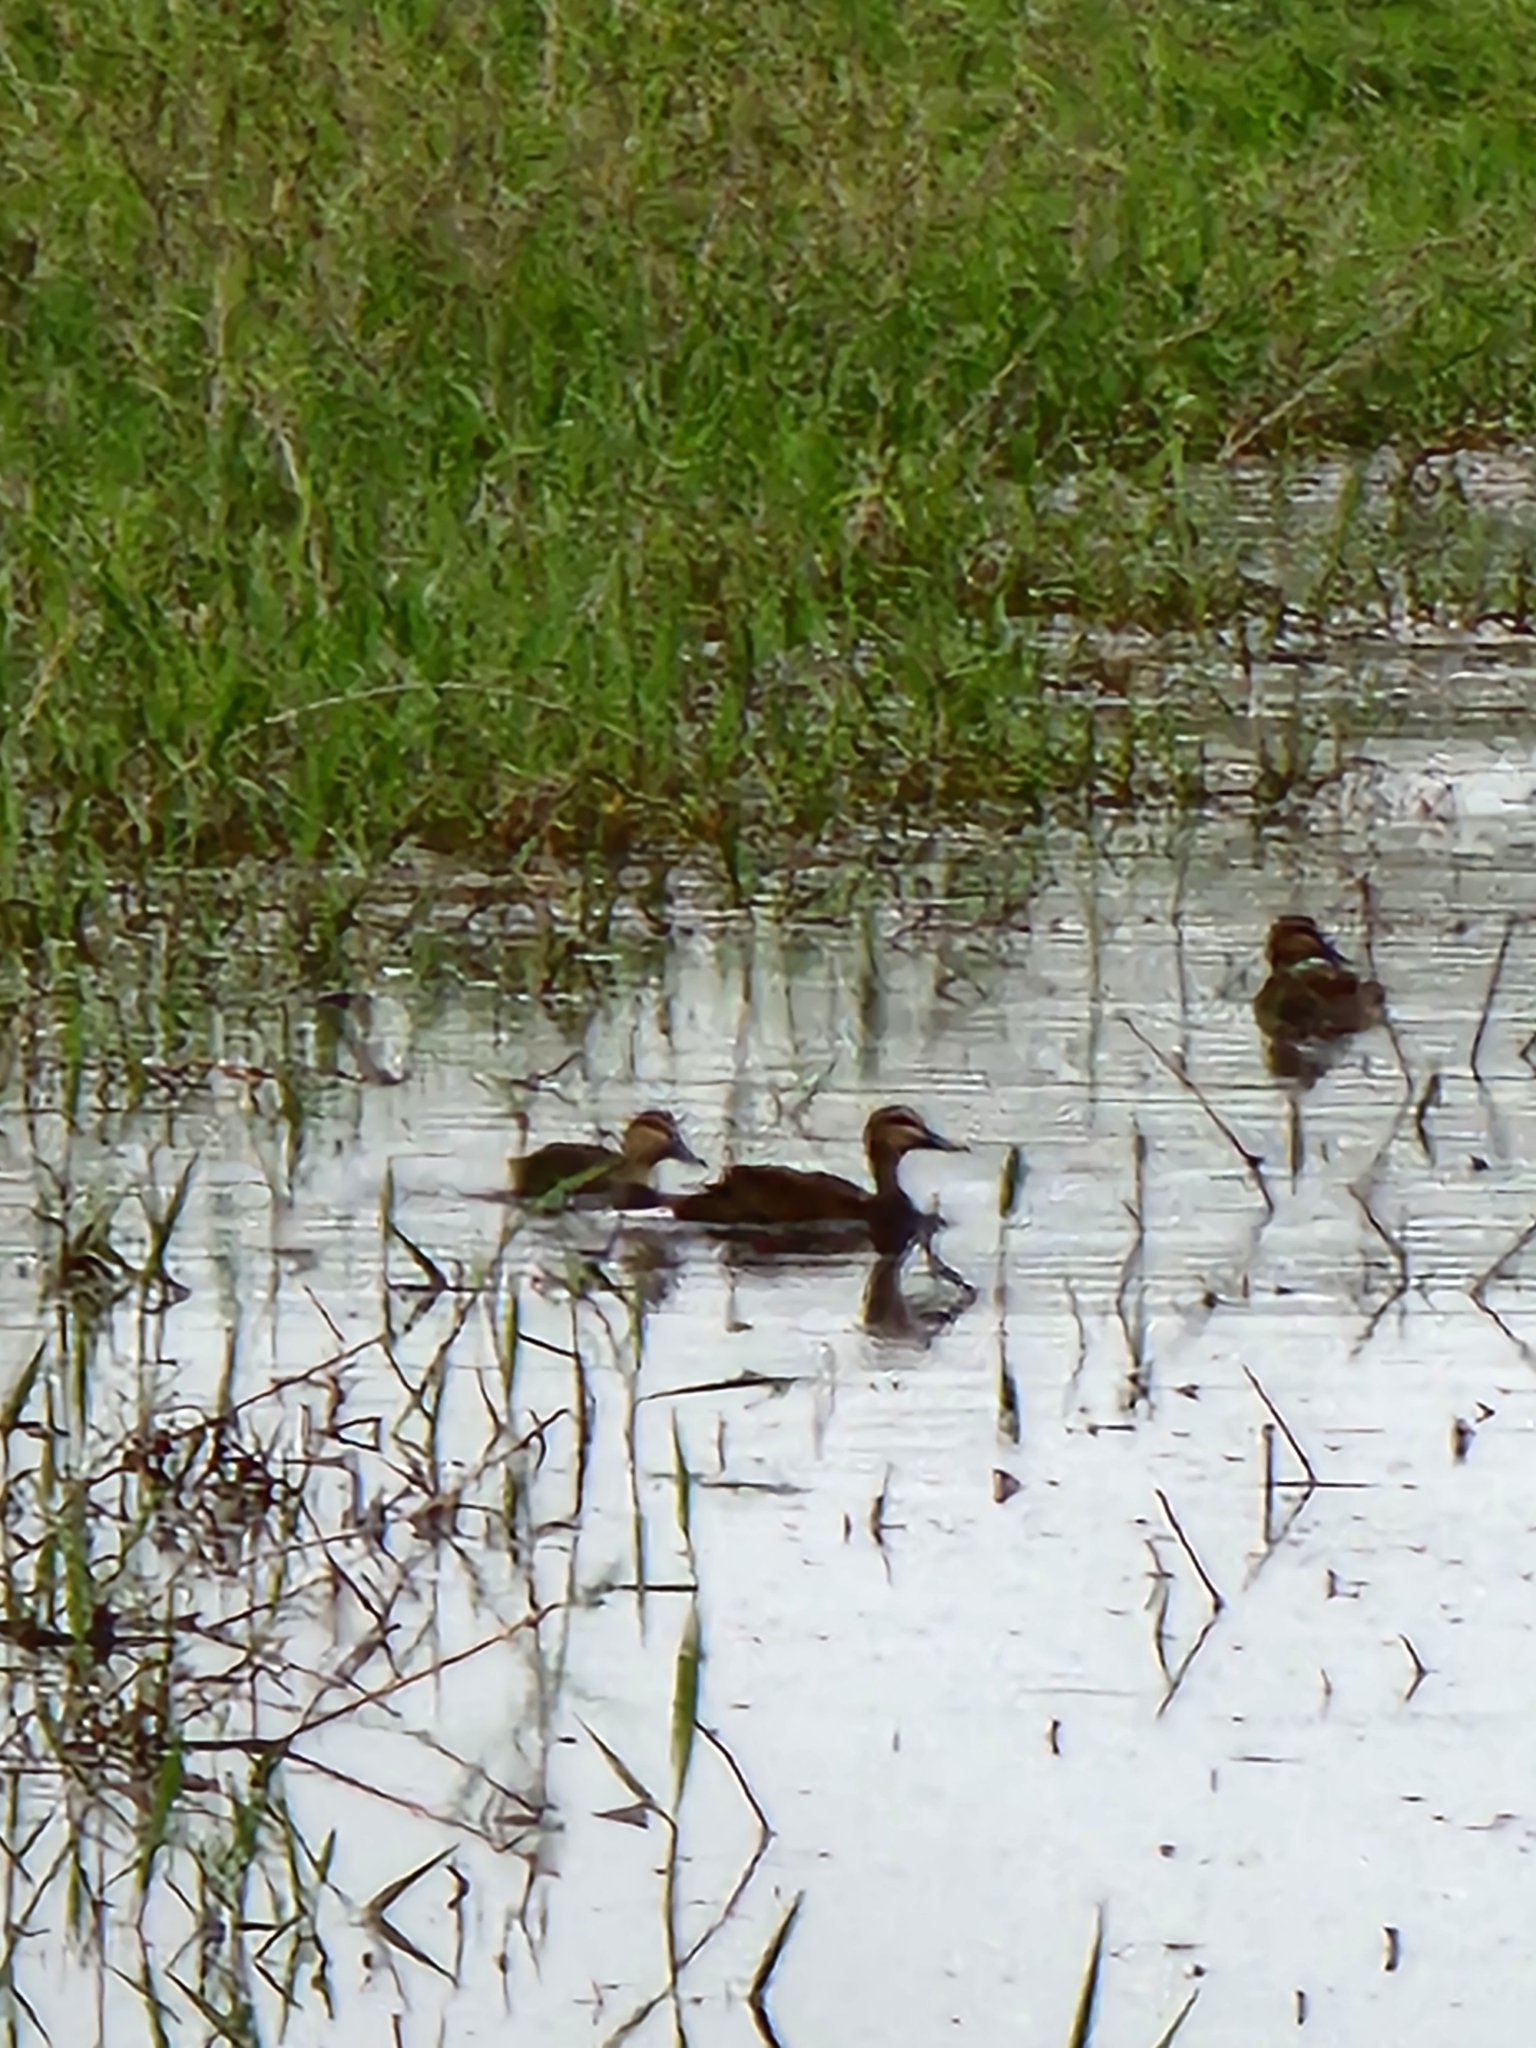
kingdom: Animalia
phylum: Chordata
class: Aves
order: Anseriformes
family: Anatidae
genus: Anas
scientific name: Anas superciliosa
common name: Pacific black duck
